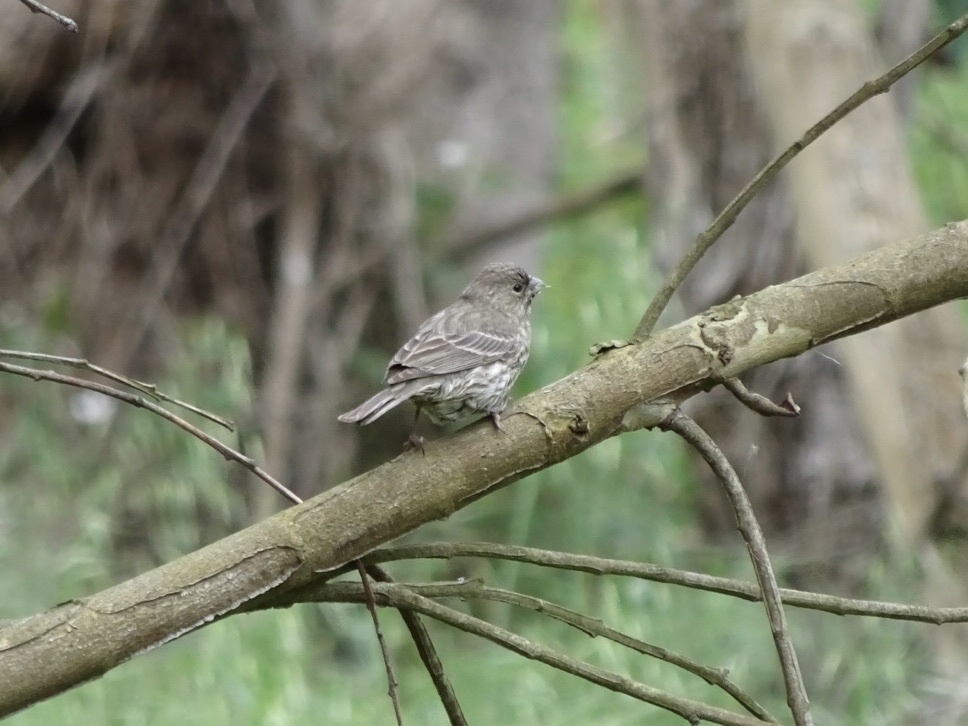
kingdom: Animalia
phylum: Chordata
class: Aves
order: Passeriformes
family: Fringillidae
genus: Haemorhous
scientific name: Haemorhous mexicanus
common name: House finch
